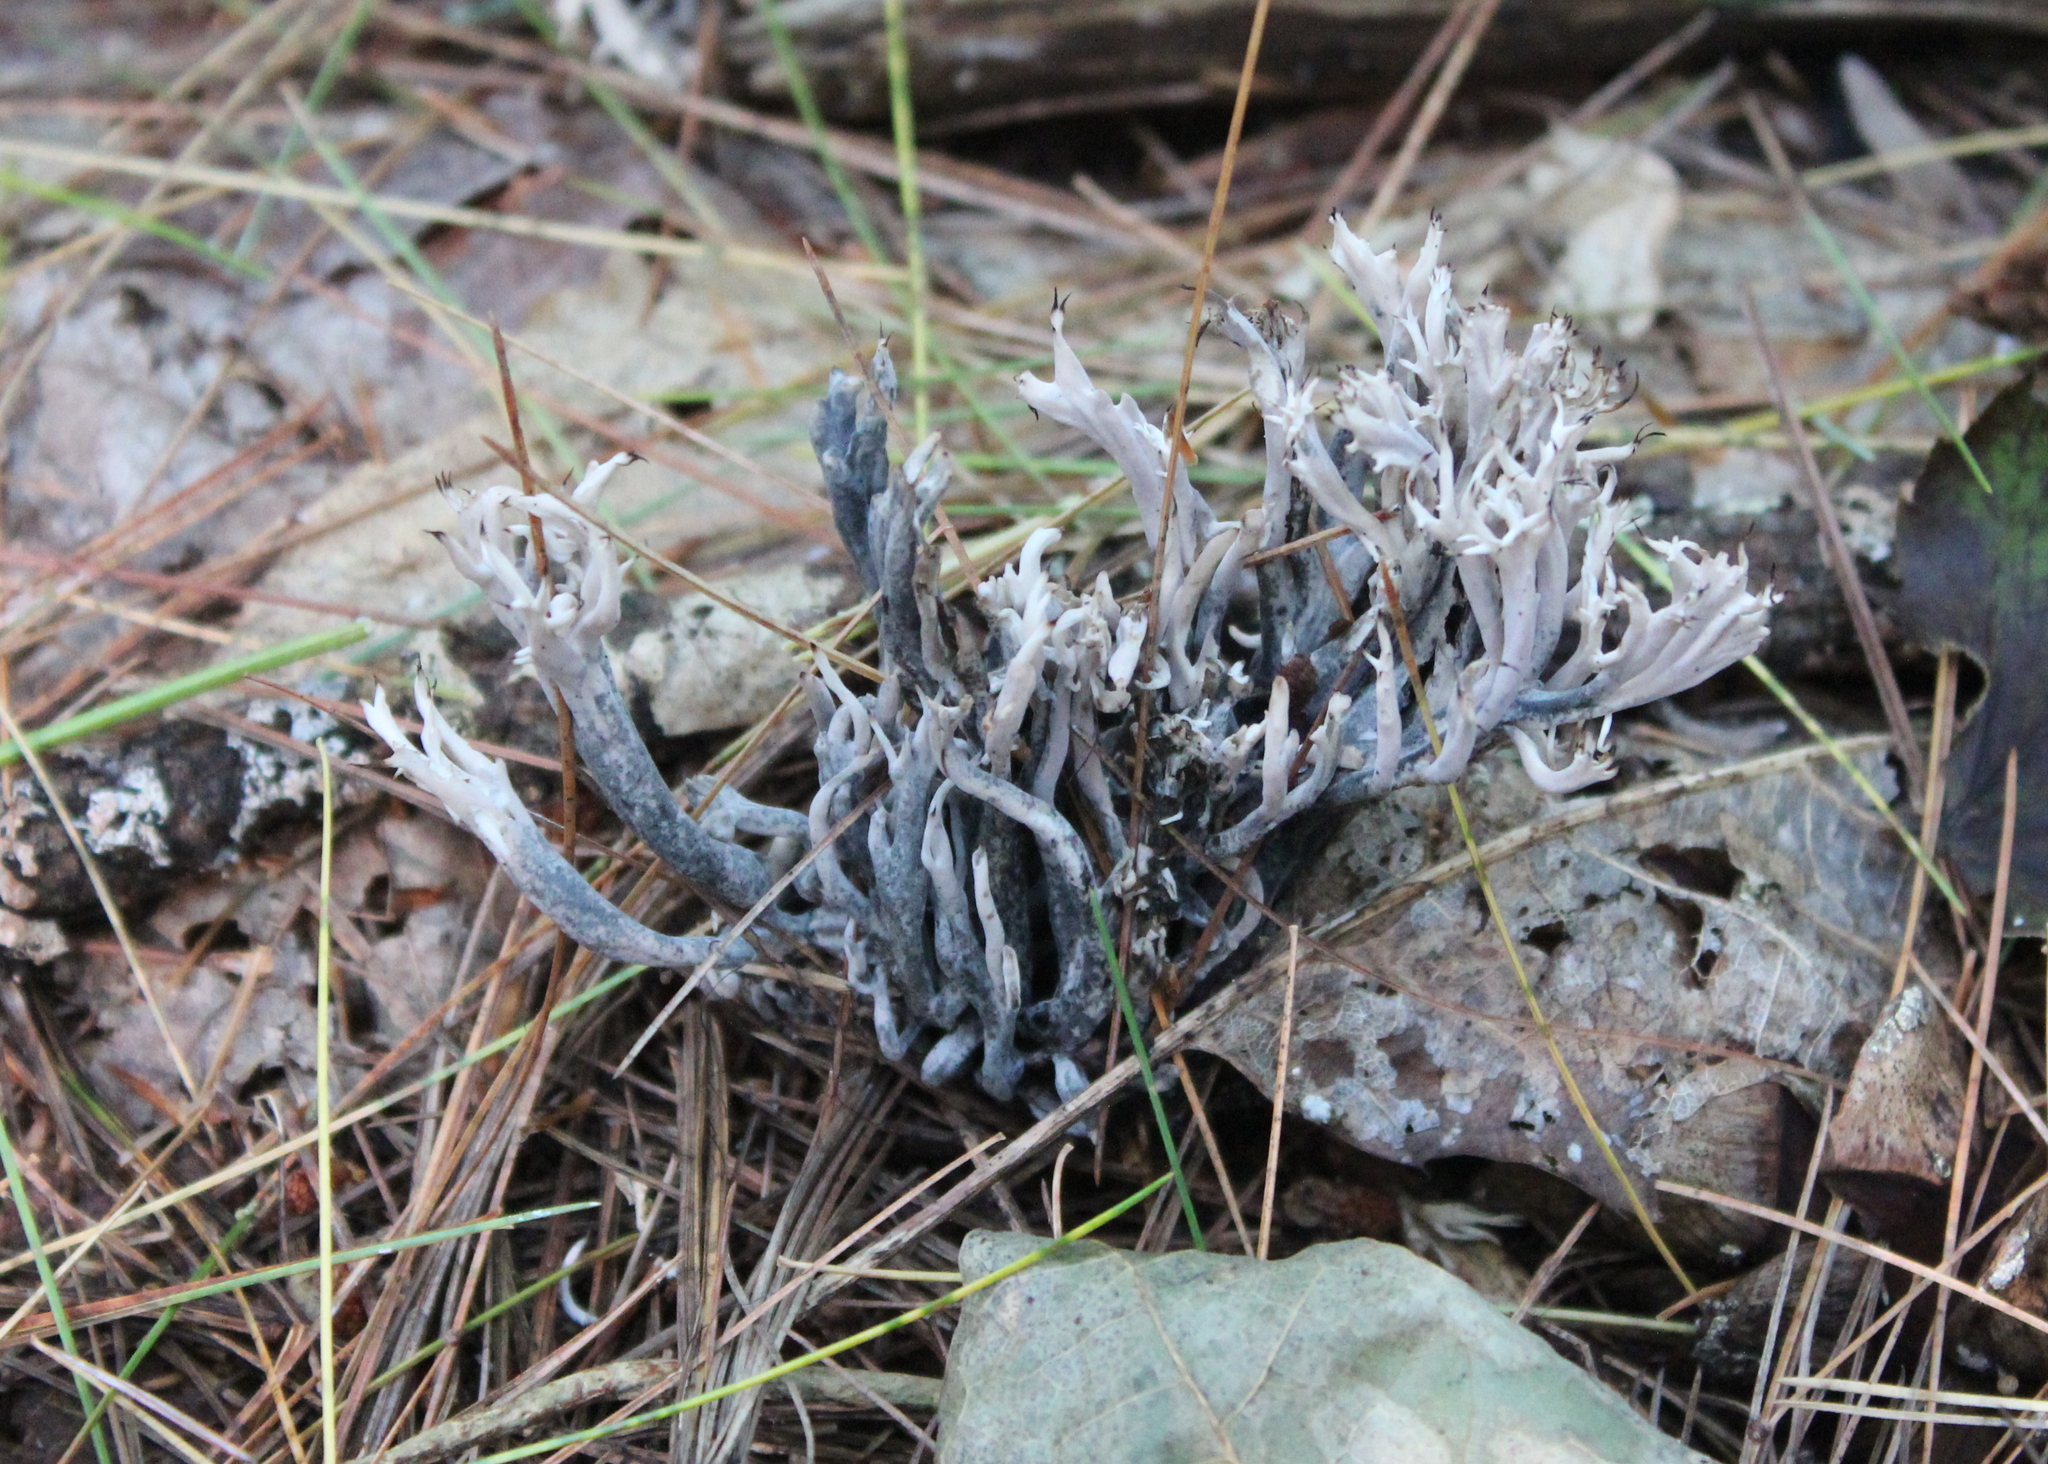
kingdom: Fungi
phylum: Ascomycota
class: Sordariomycetes
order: Sordariales
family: Helminthosphaeriaceae
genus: Helminthosphaeria
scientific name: Helminthosphaeria clavariarum
